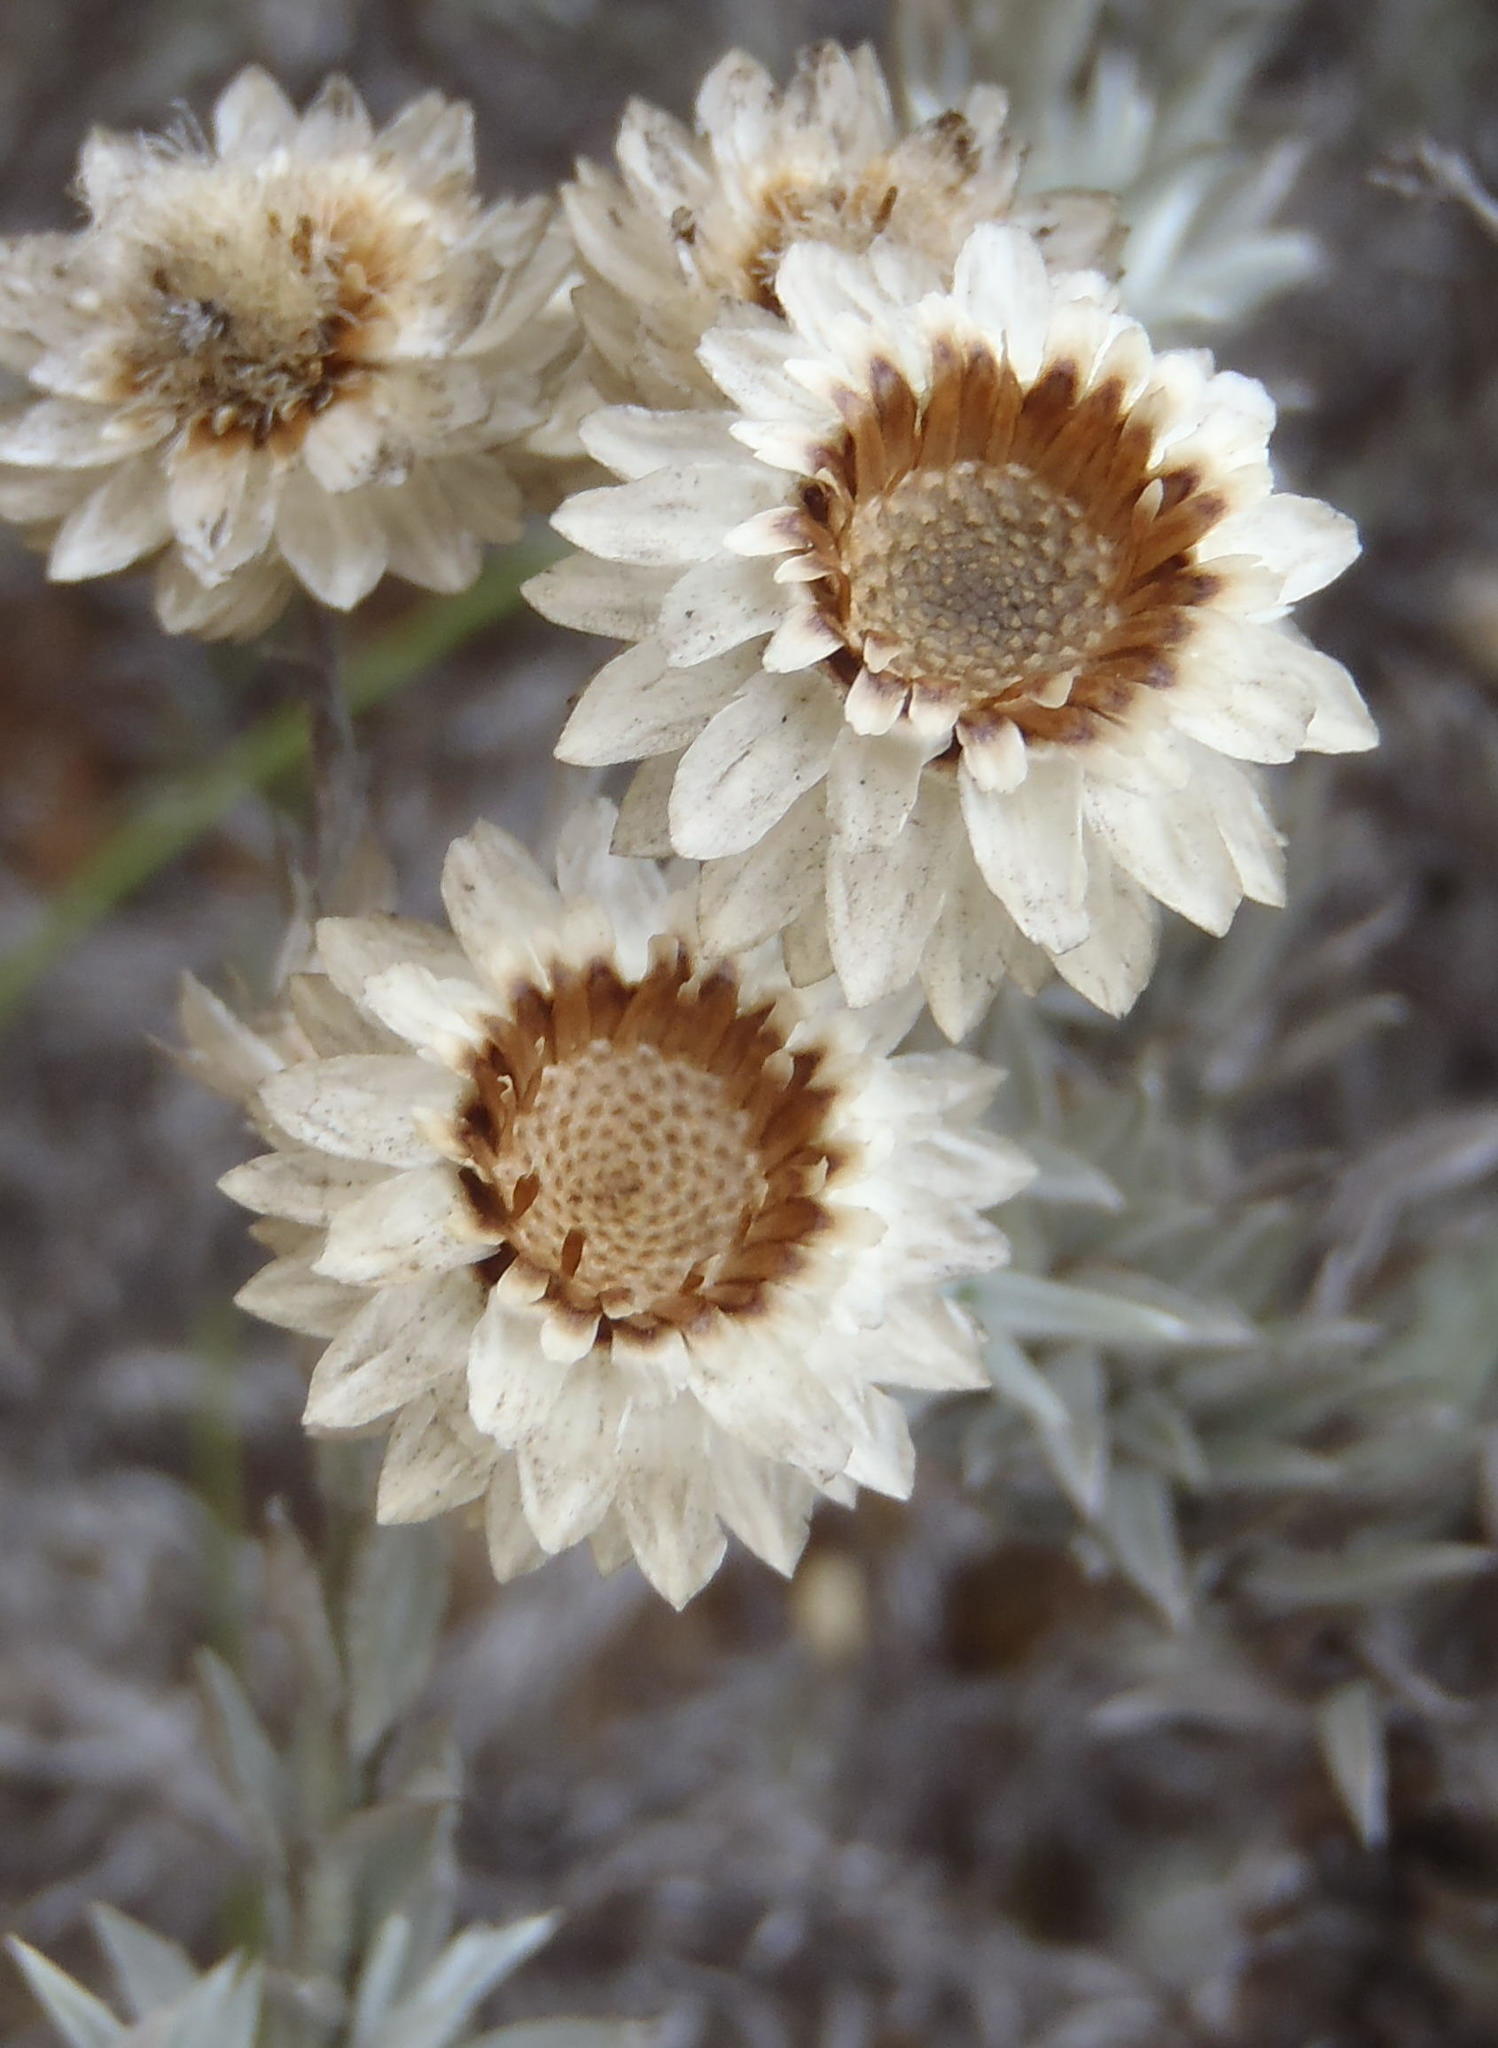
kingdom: Plantae
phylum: Tracheophyta
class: Magnoliopsida
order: Asterales
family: Asteraceae
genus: Achyranthemum
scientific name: Achyranthemum paniculatum
